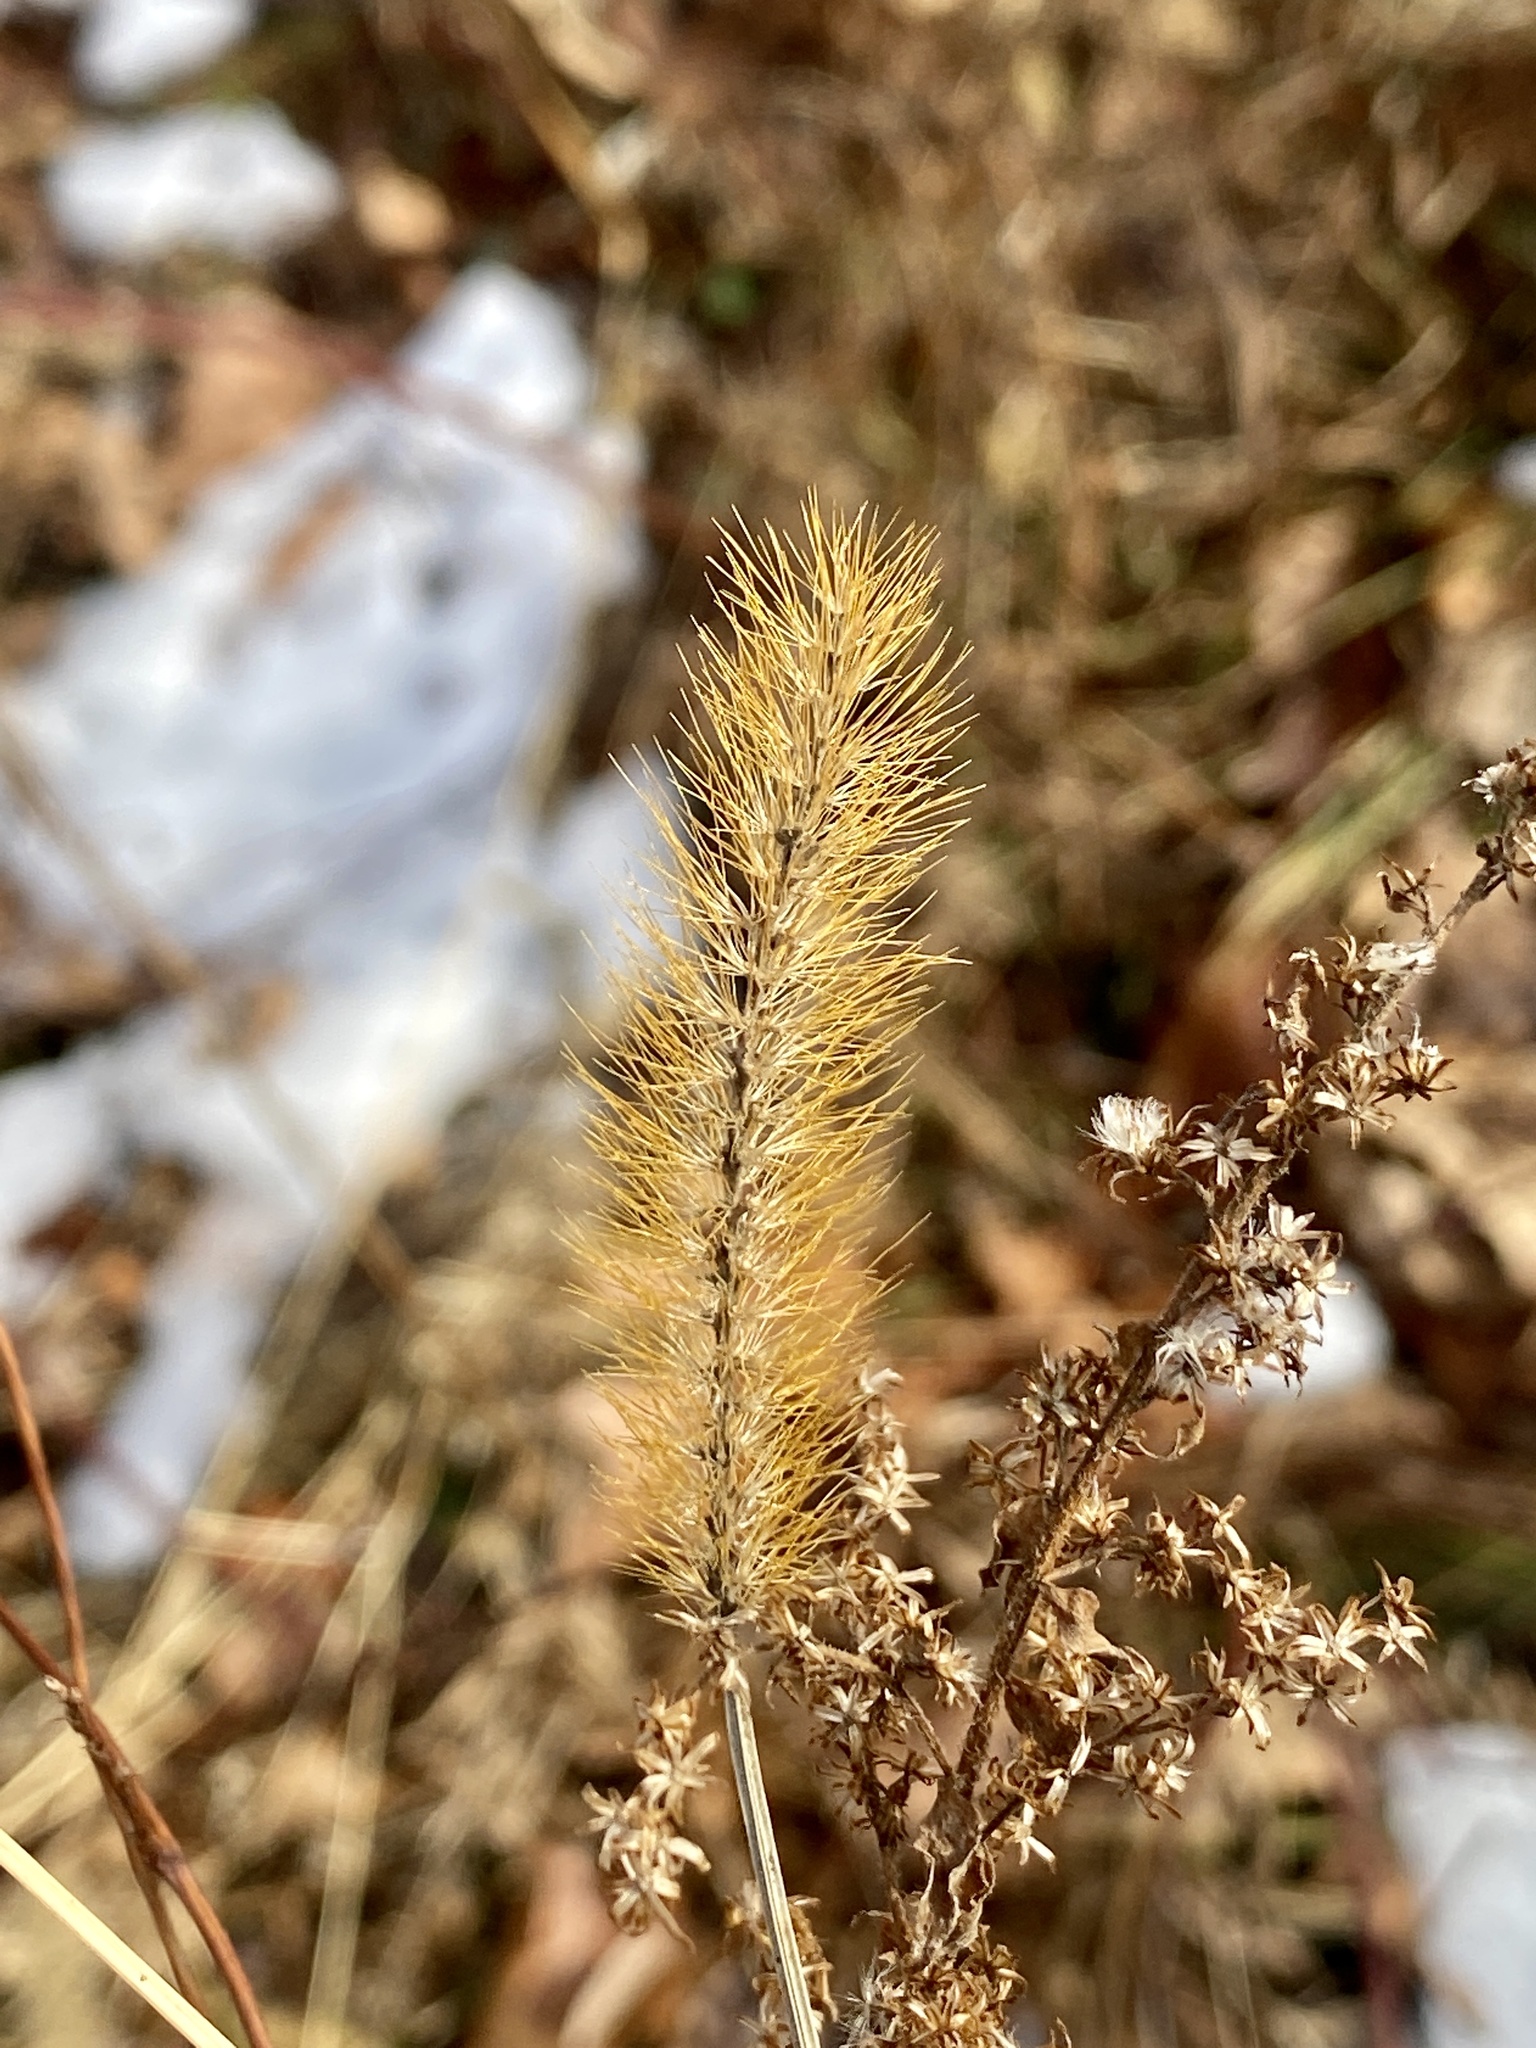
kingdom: Plantae
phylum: Tracheophyta
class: Liliopsida
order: Poales
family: Poaceae
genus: Setaria
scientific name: Setaria pumila
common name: Yellow bristle-grass
